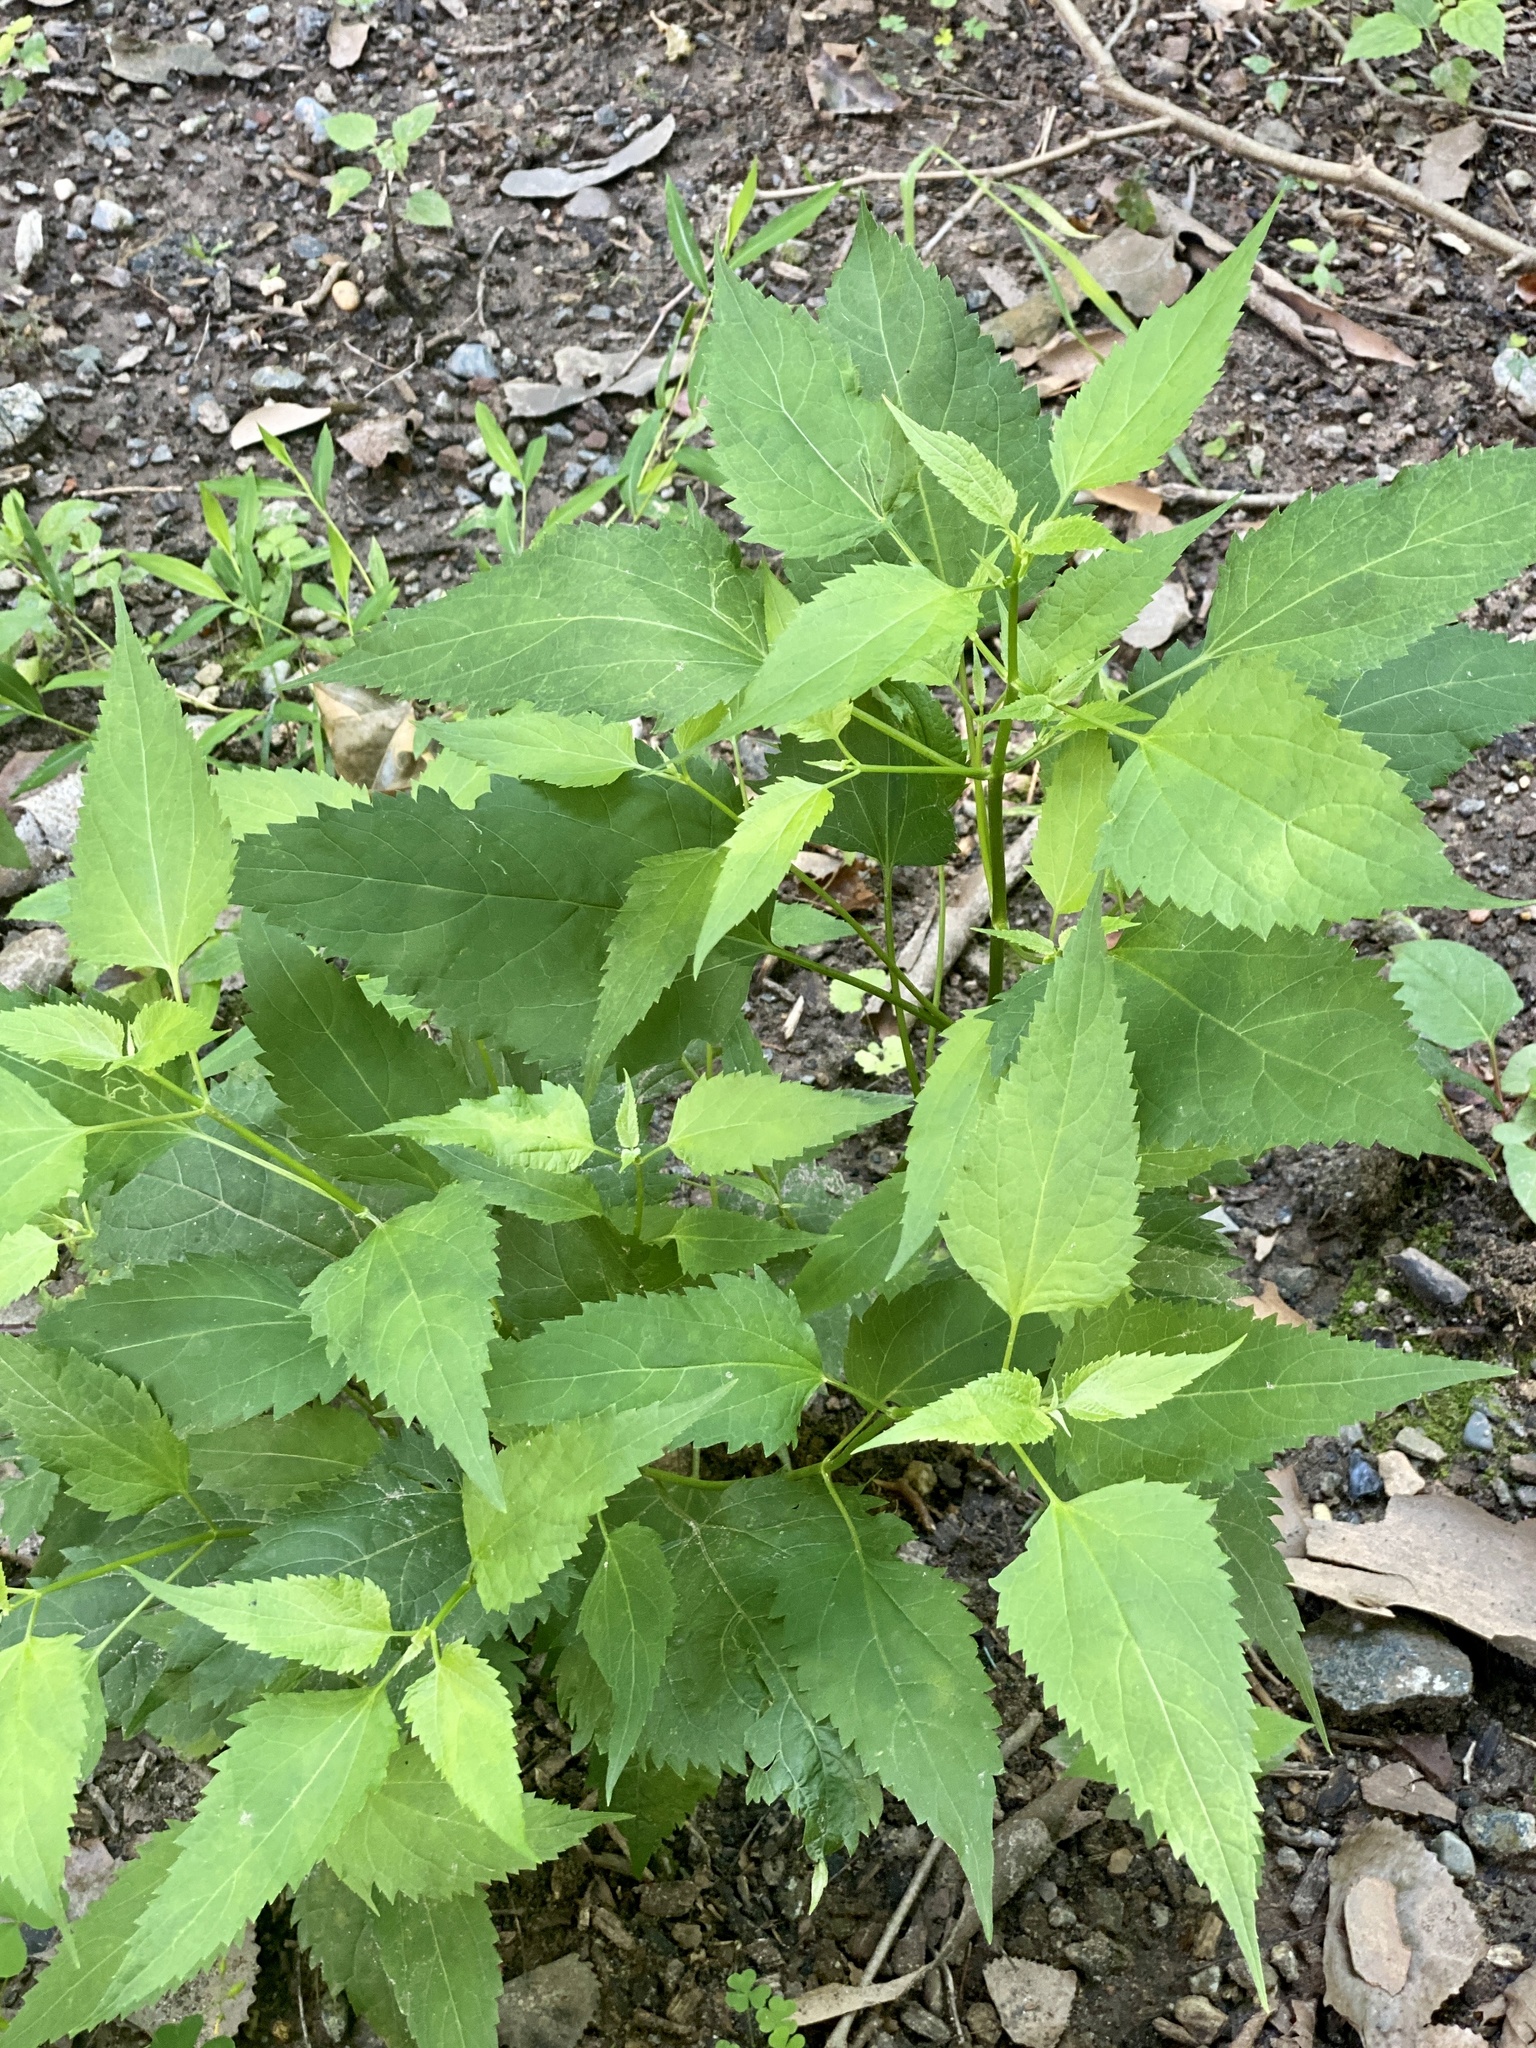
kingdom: Plantae
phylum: Tracheophyta
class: Magnoliopsida
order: Asterales
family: Asteraceae
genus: Ageratina
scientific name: Ageratina altissima
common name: White snakeroot
